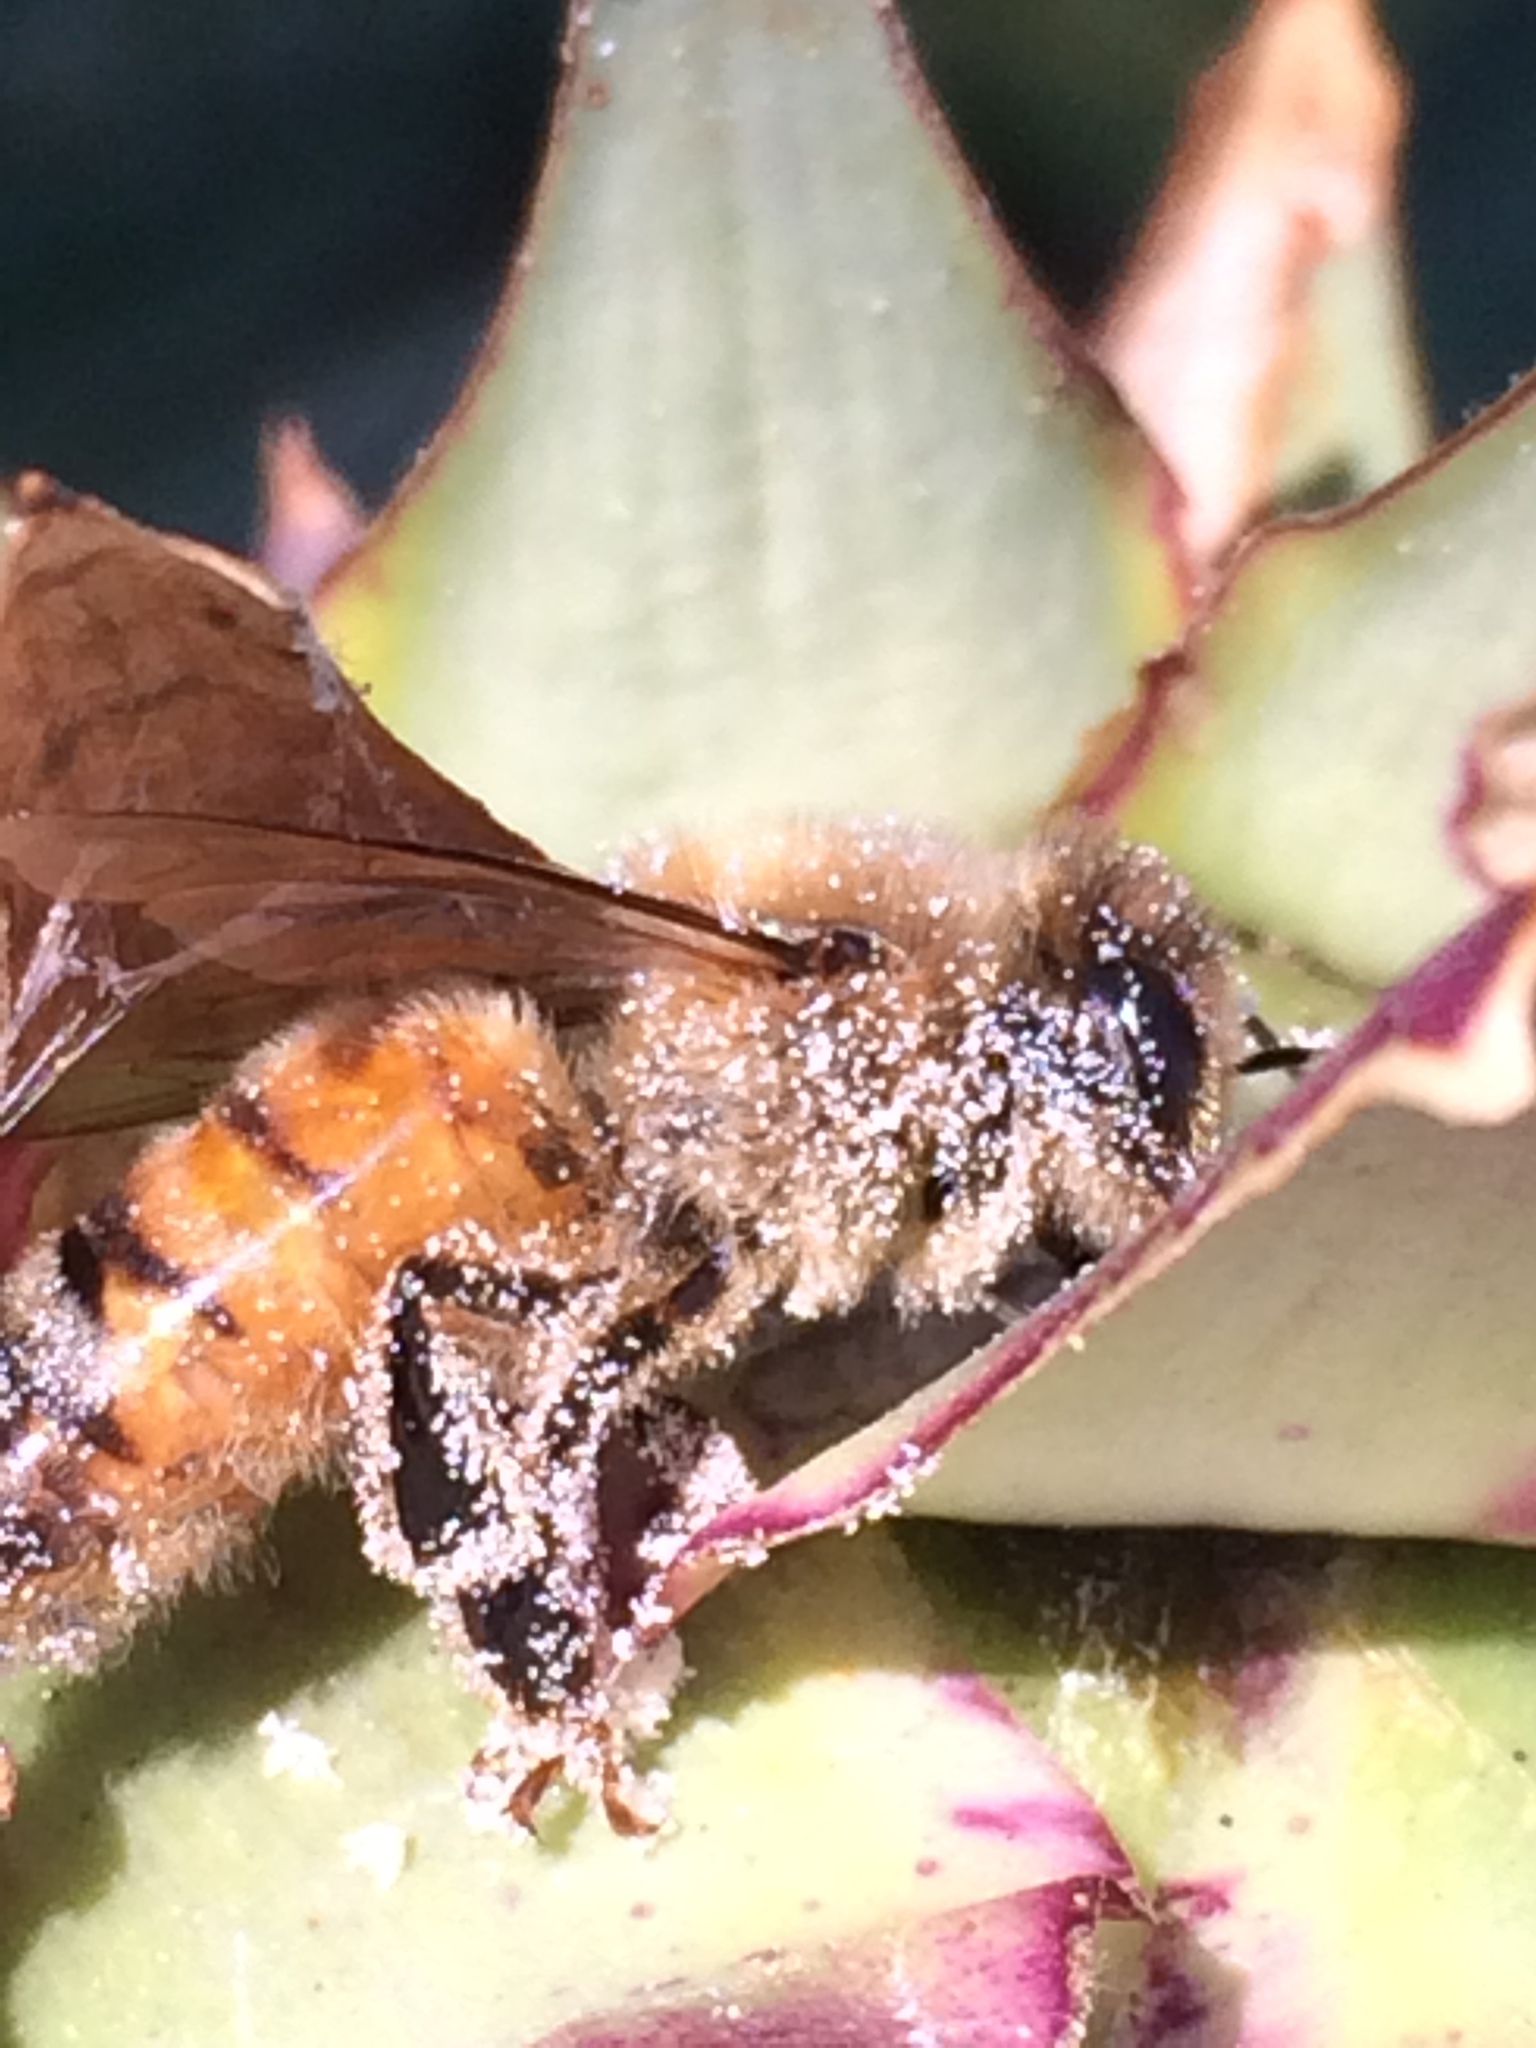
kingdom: Animalia
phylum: Arthropoda
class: Insecta
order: Hymenoptera
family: Apidae
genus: Apis
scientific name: Apis mellifera
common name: Honey bee
